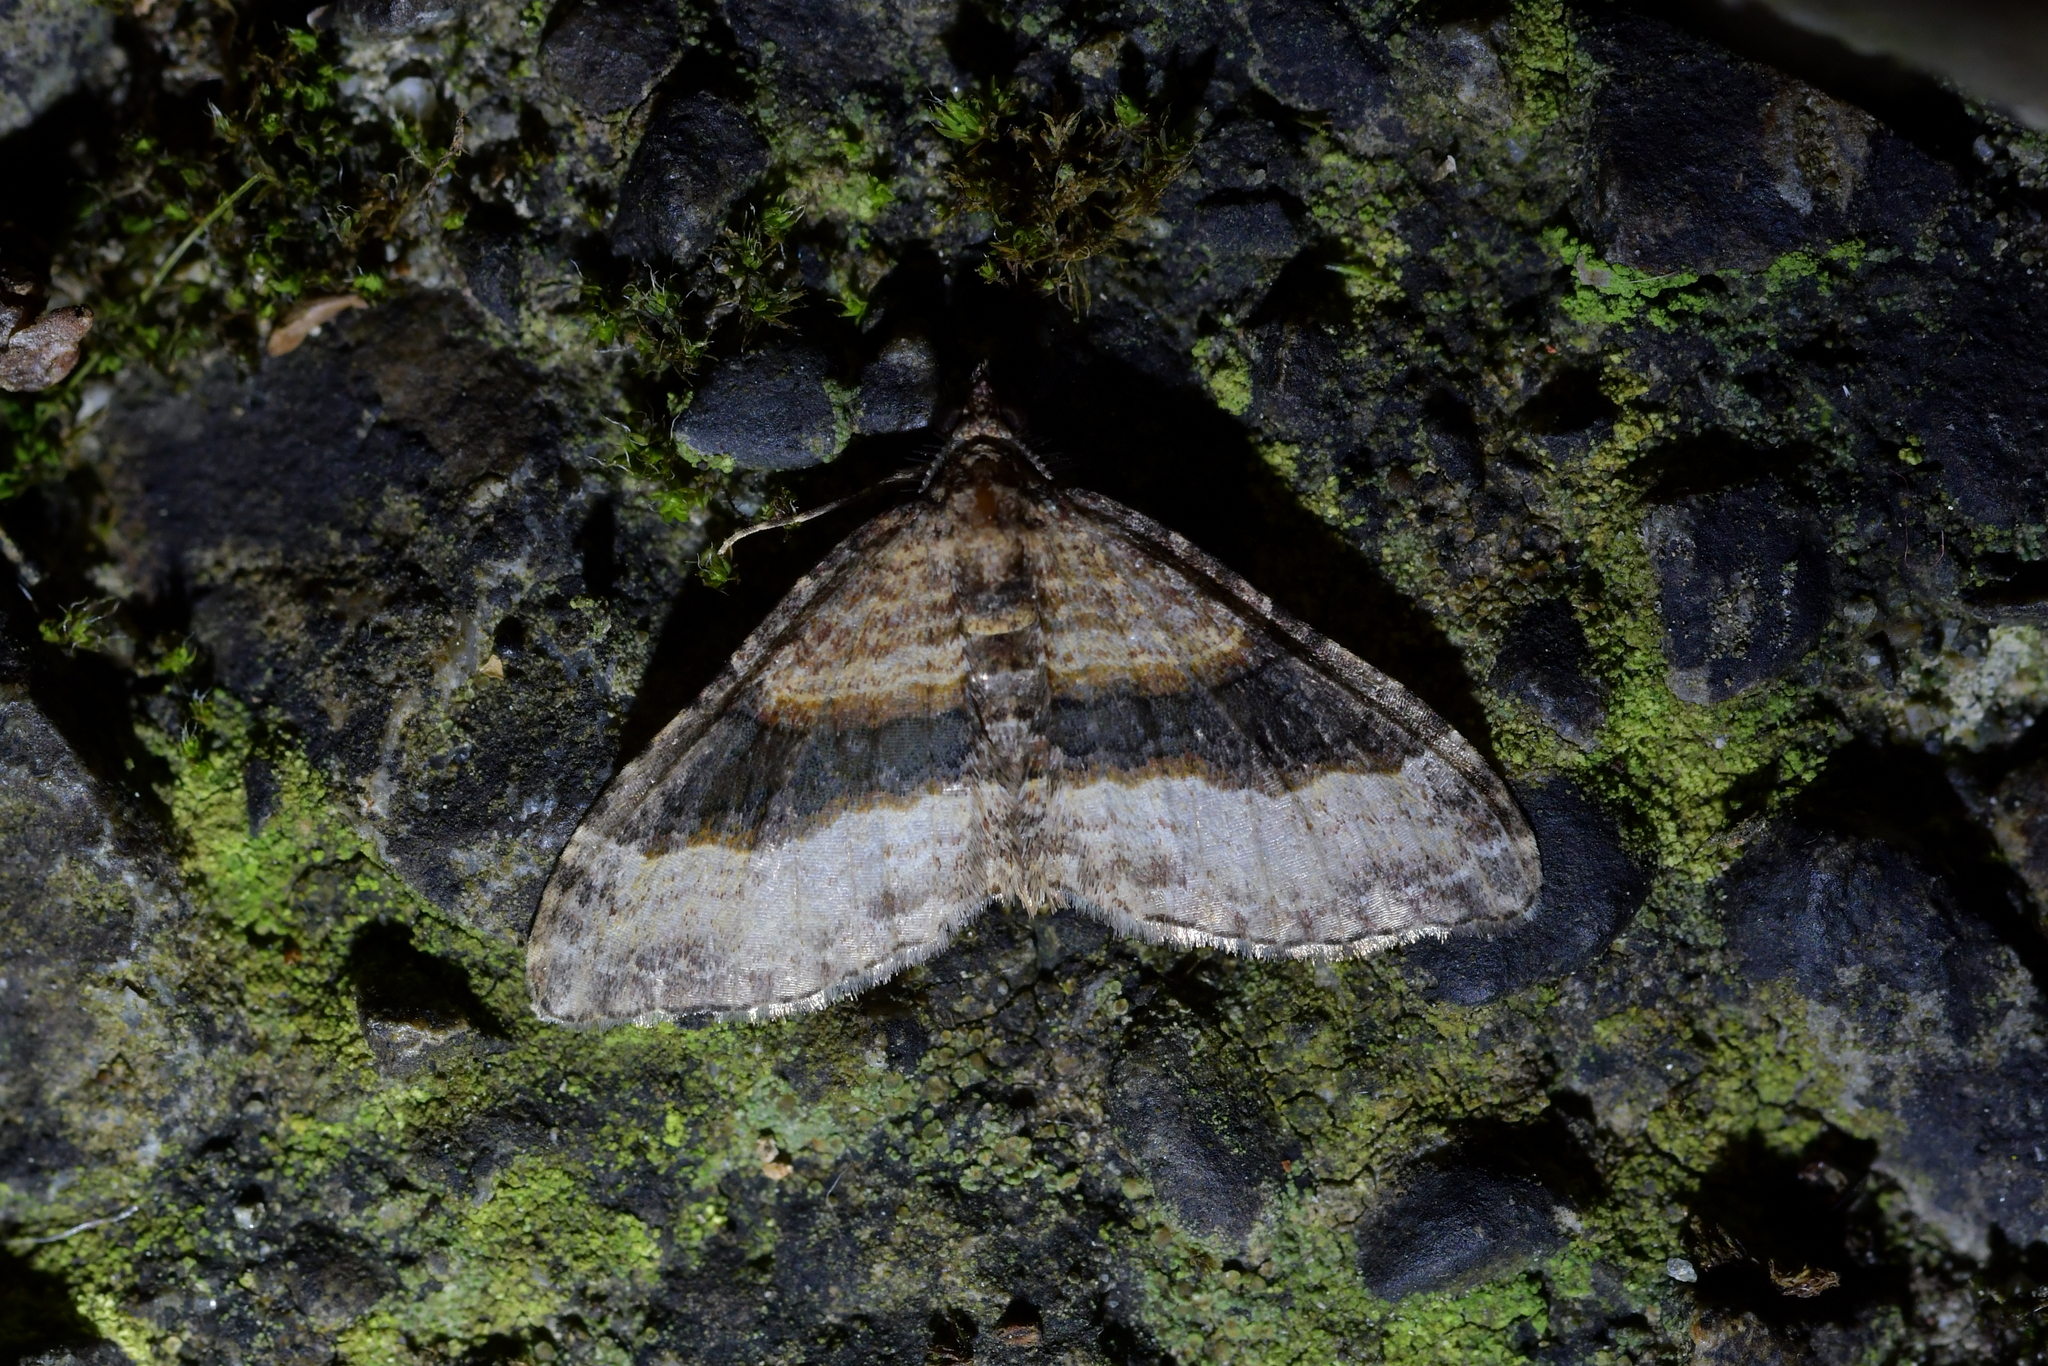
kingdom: Animalia
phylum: Arthropoda
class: Insecta
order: Lepidoptera
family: Geometridae
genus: Epyaxa
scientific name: Epyaxa lucidata
